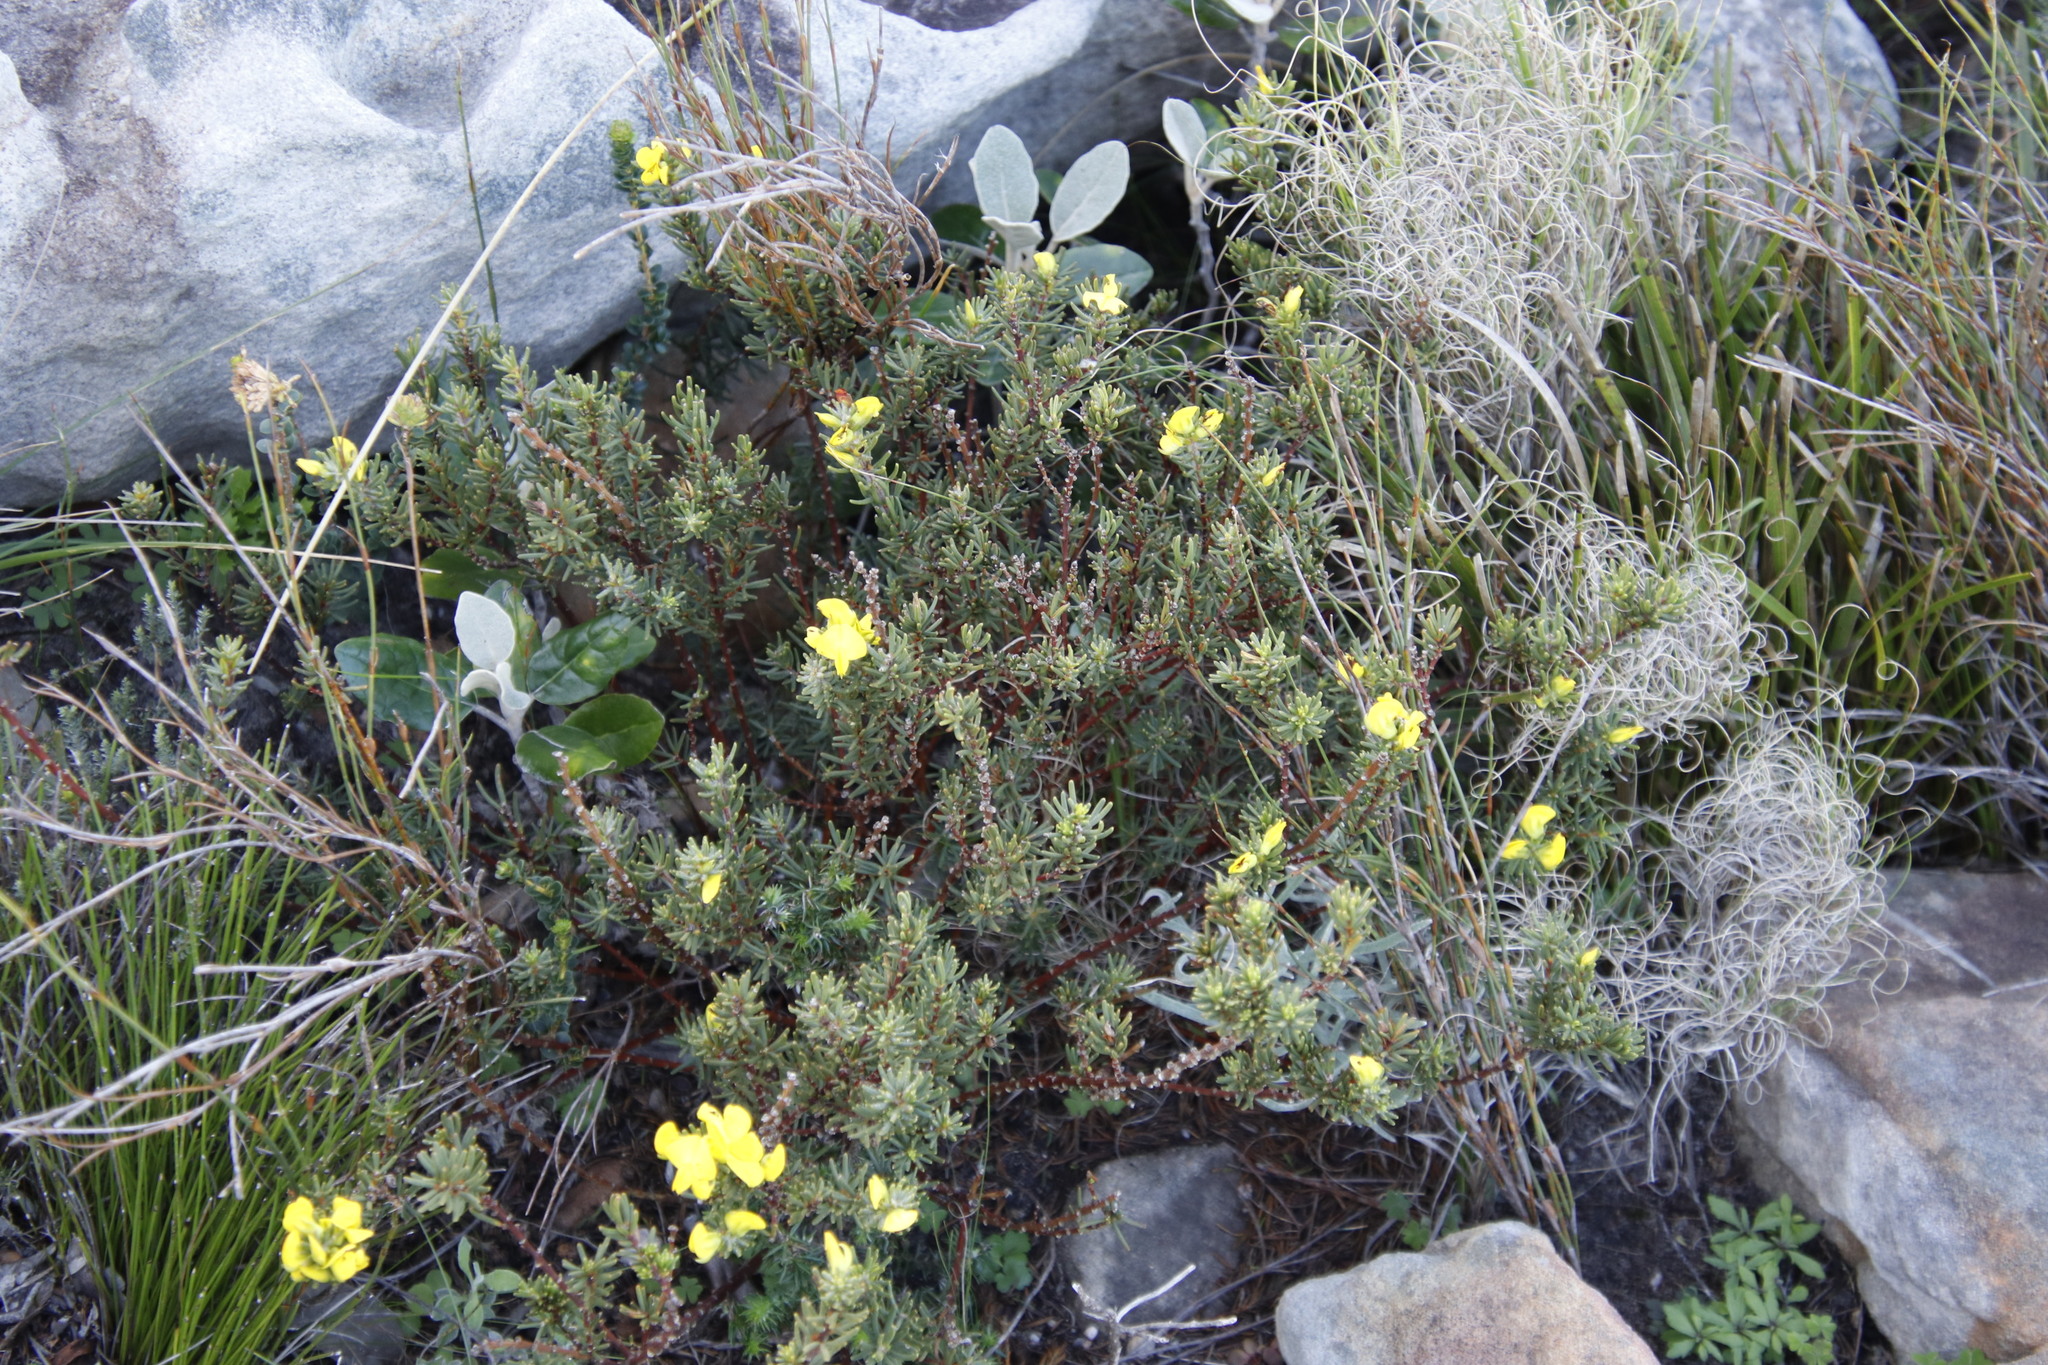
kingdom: Plantae
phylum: Tracheophyta
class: Magnoliopsida
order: Fabales
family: Fabaceae
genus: Cyclopia
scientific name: Cyclopia galioides
